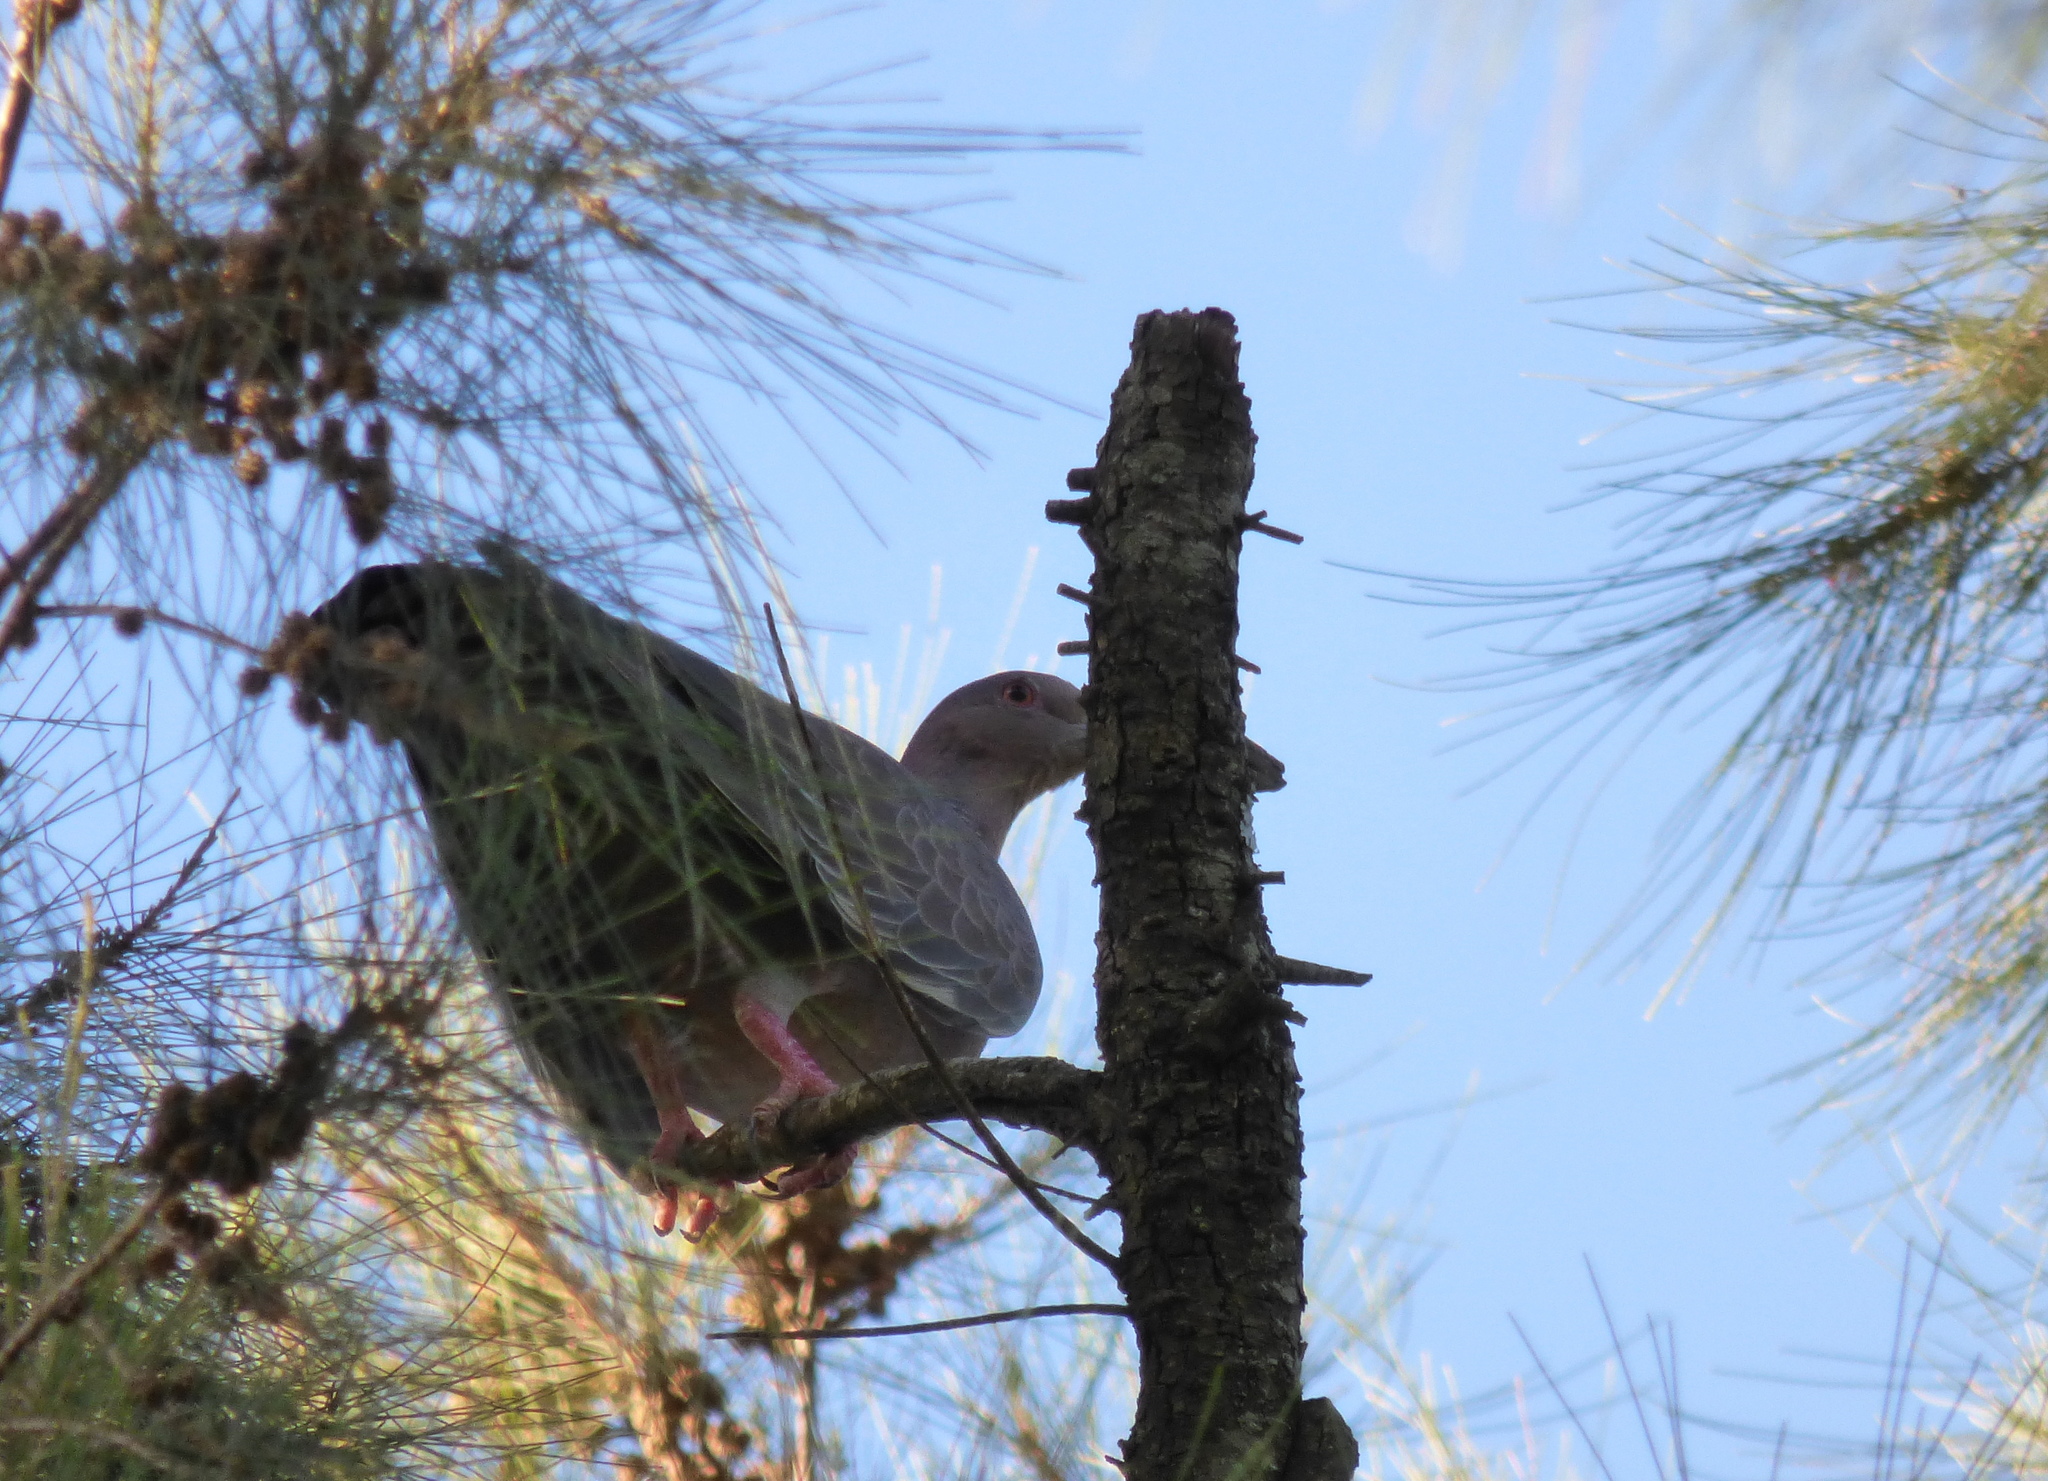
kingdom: Animalia
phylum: Chordata
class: Aves
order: Columbiformes
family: Columbidae
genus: Patagioenas
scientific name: Patagioenas picazuro
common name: Picazuro pigeon
